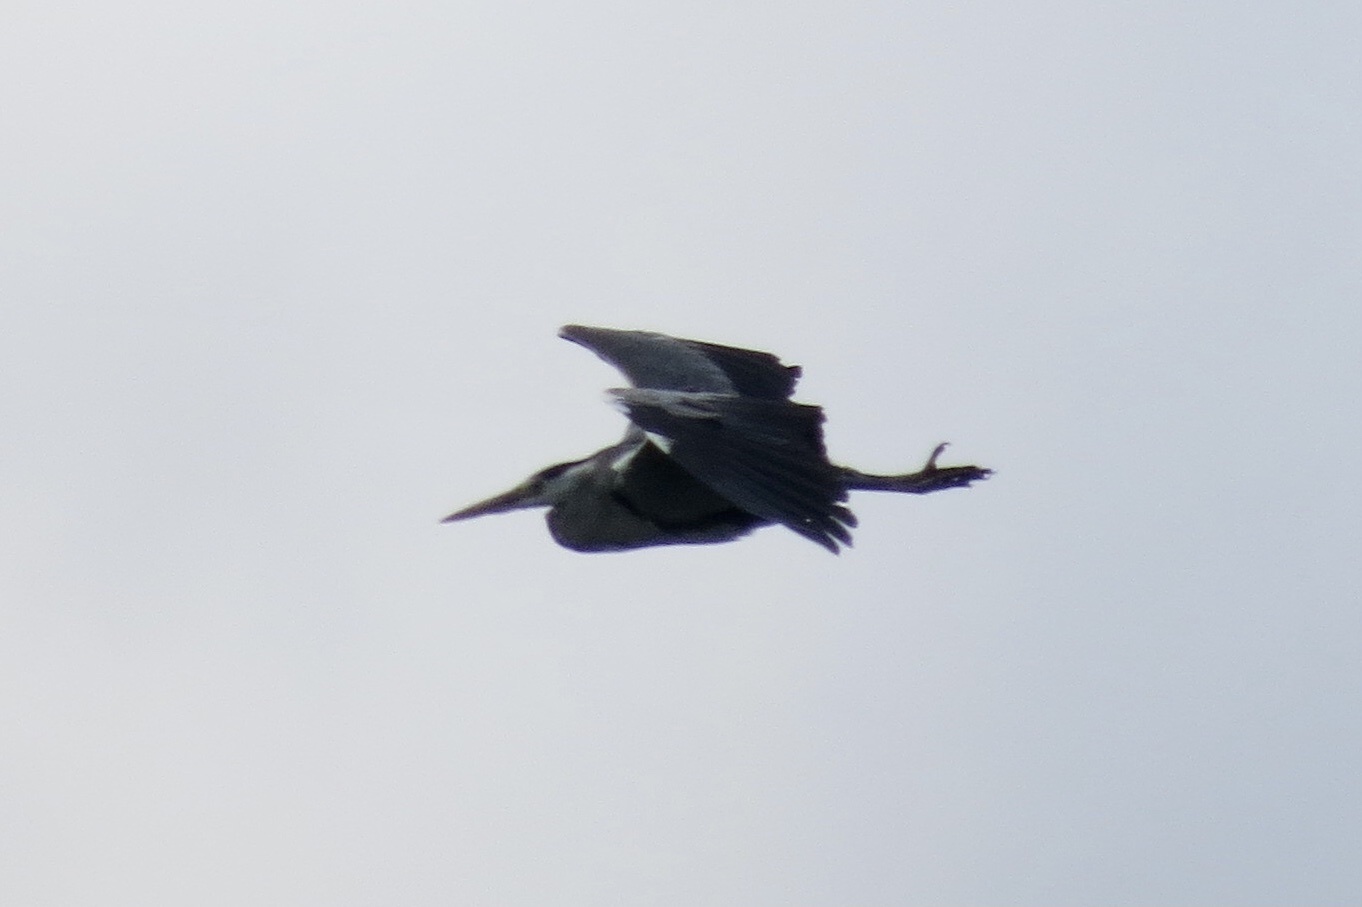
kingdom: Animalia
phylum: Chordata
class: Aves
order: Pelecaniformes
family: Ardeidae
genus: Ardea
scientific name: Ardea cinerea
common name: Grey heron
